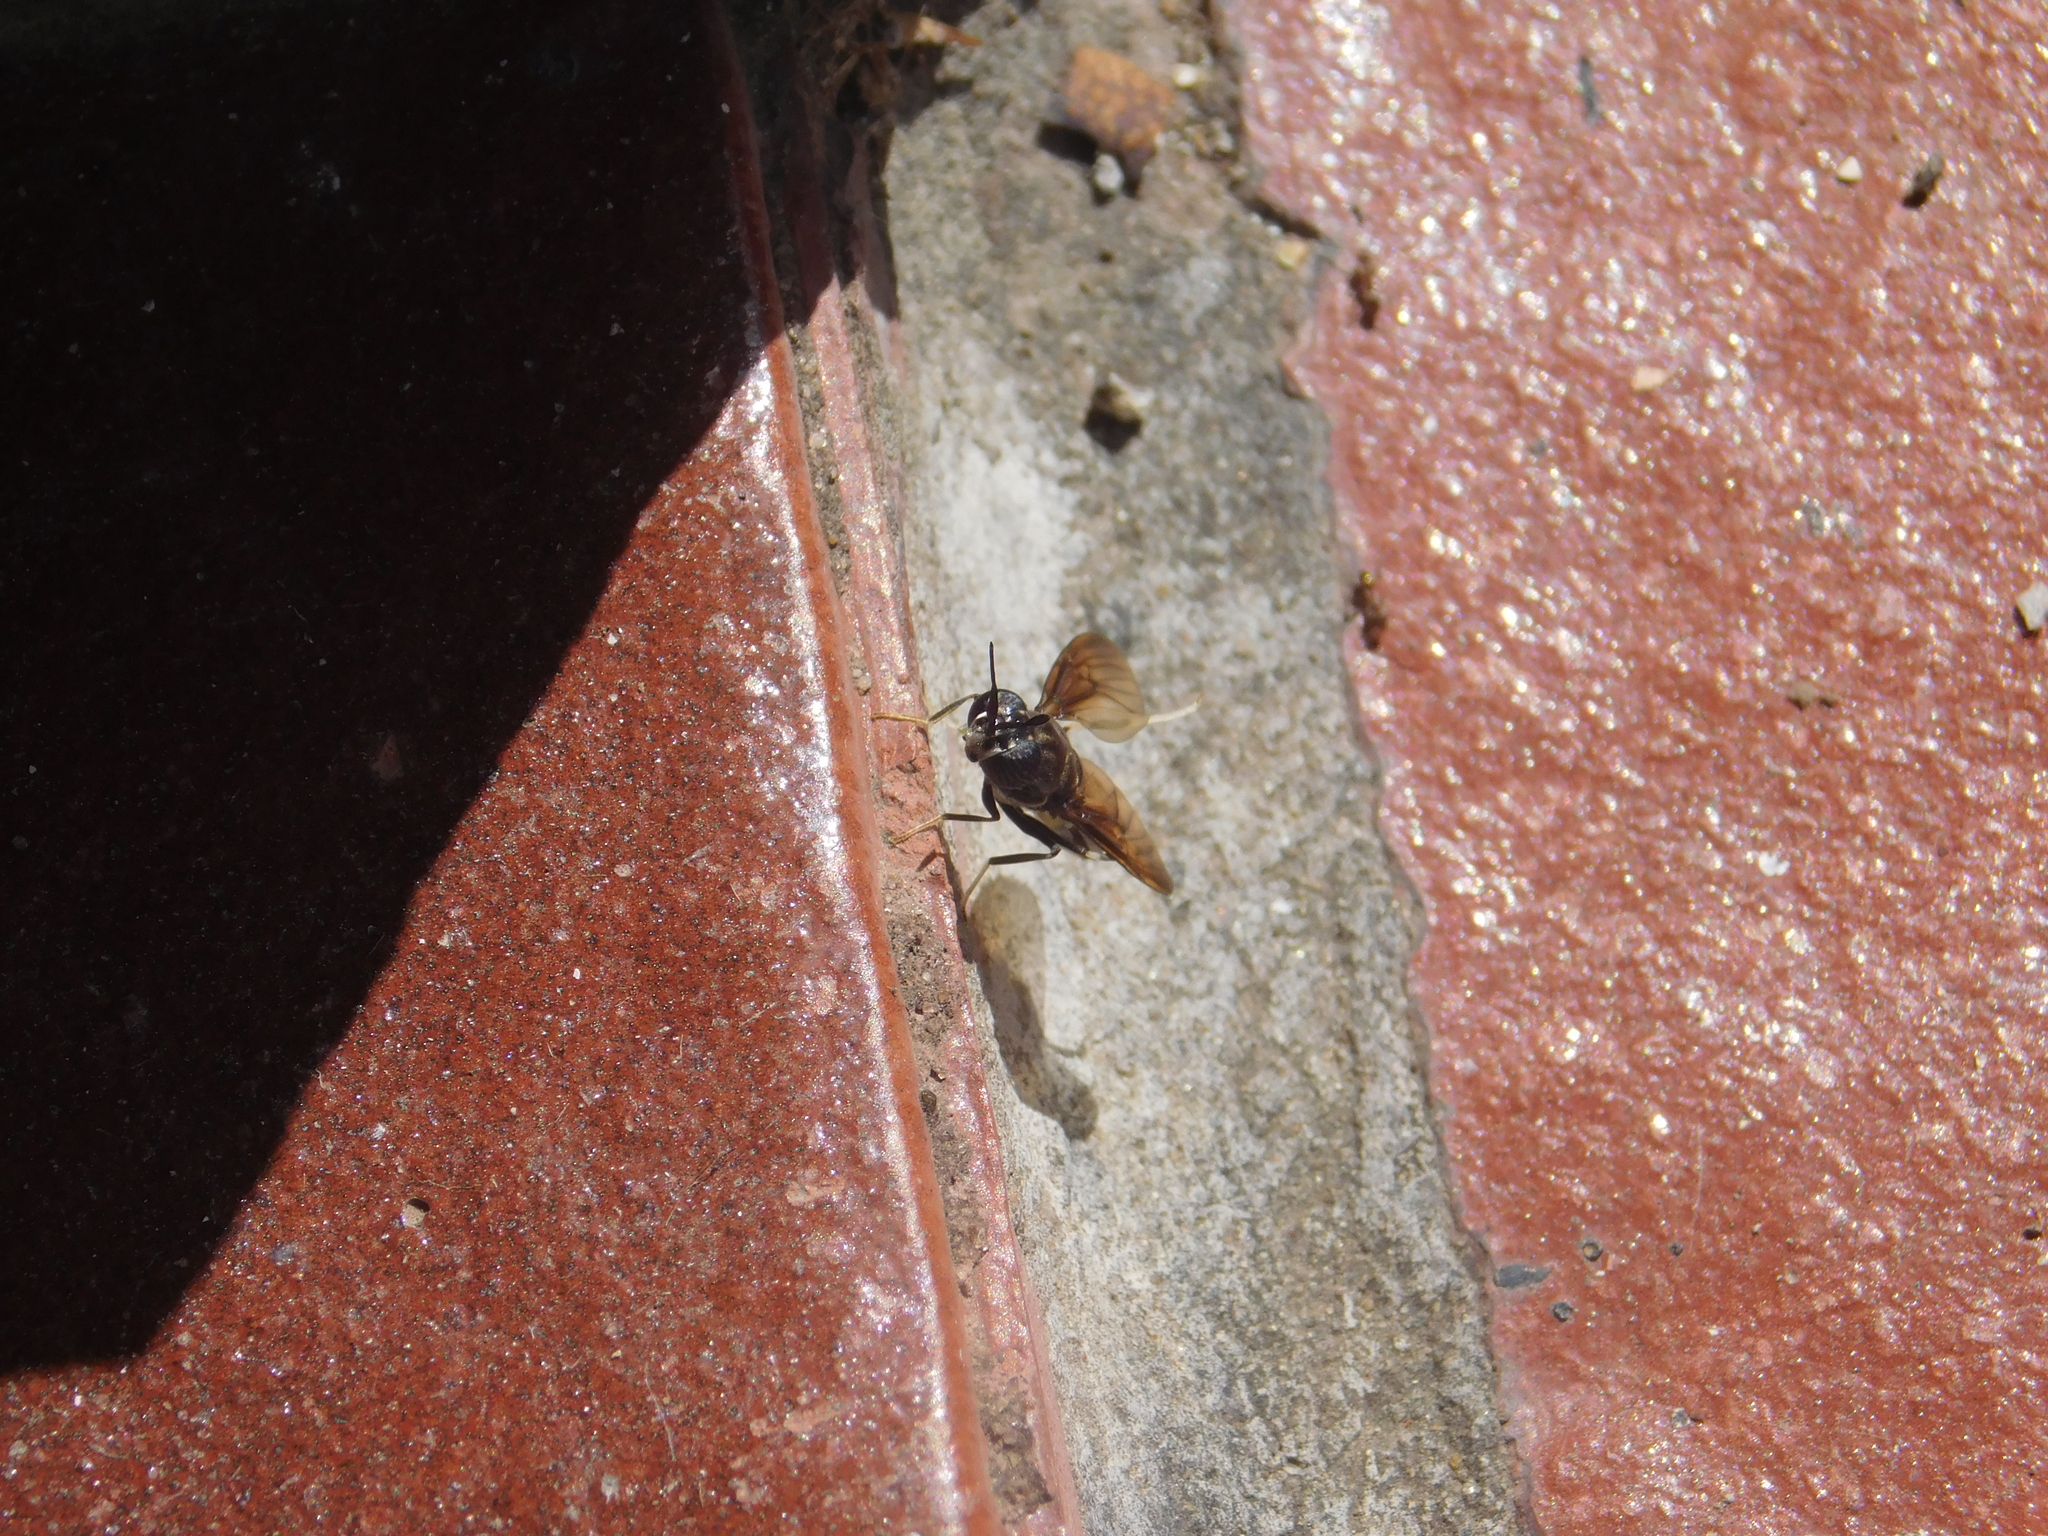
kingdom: Animalia
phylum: Arthropoda
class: Insecta
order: Diptera
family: Stratiomyidae
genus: Hermetia
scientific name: Hermetia illucens
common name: Black soldier fly
